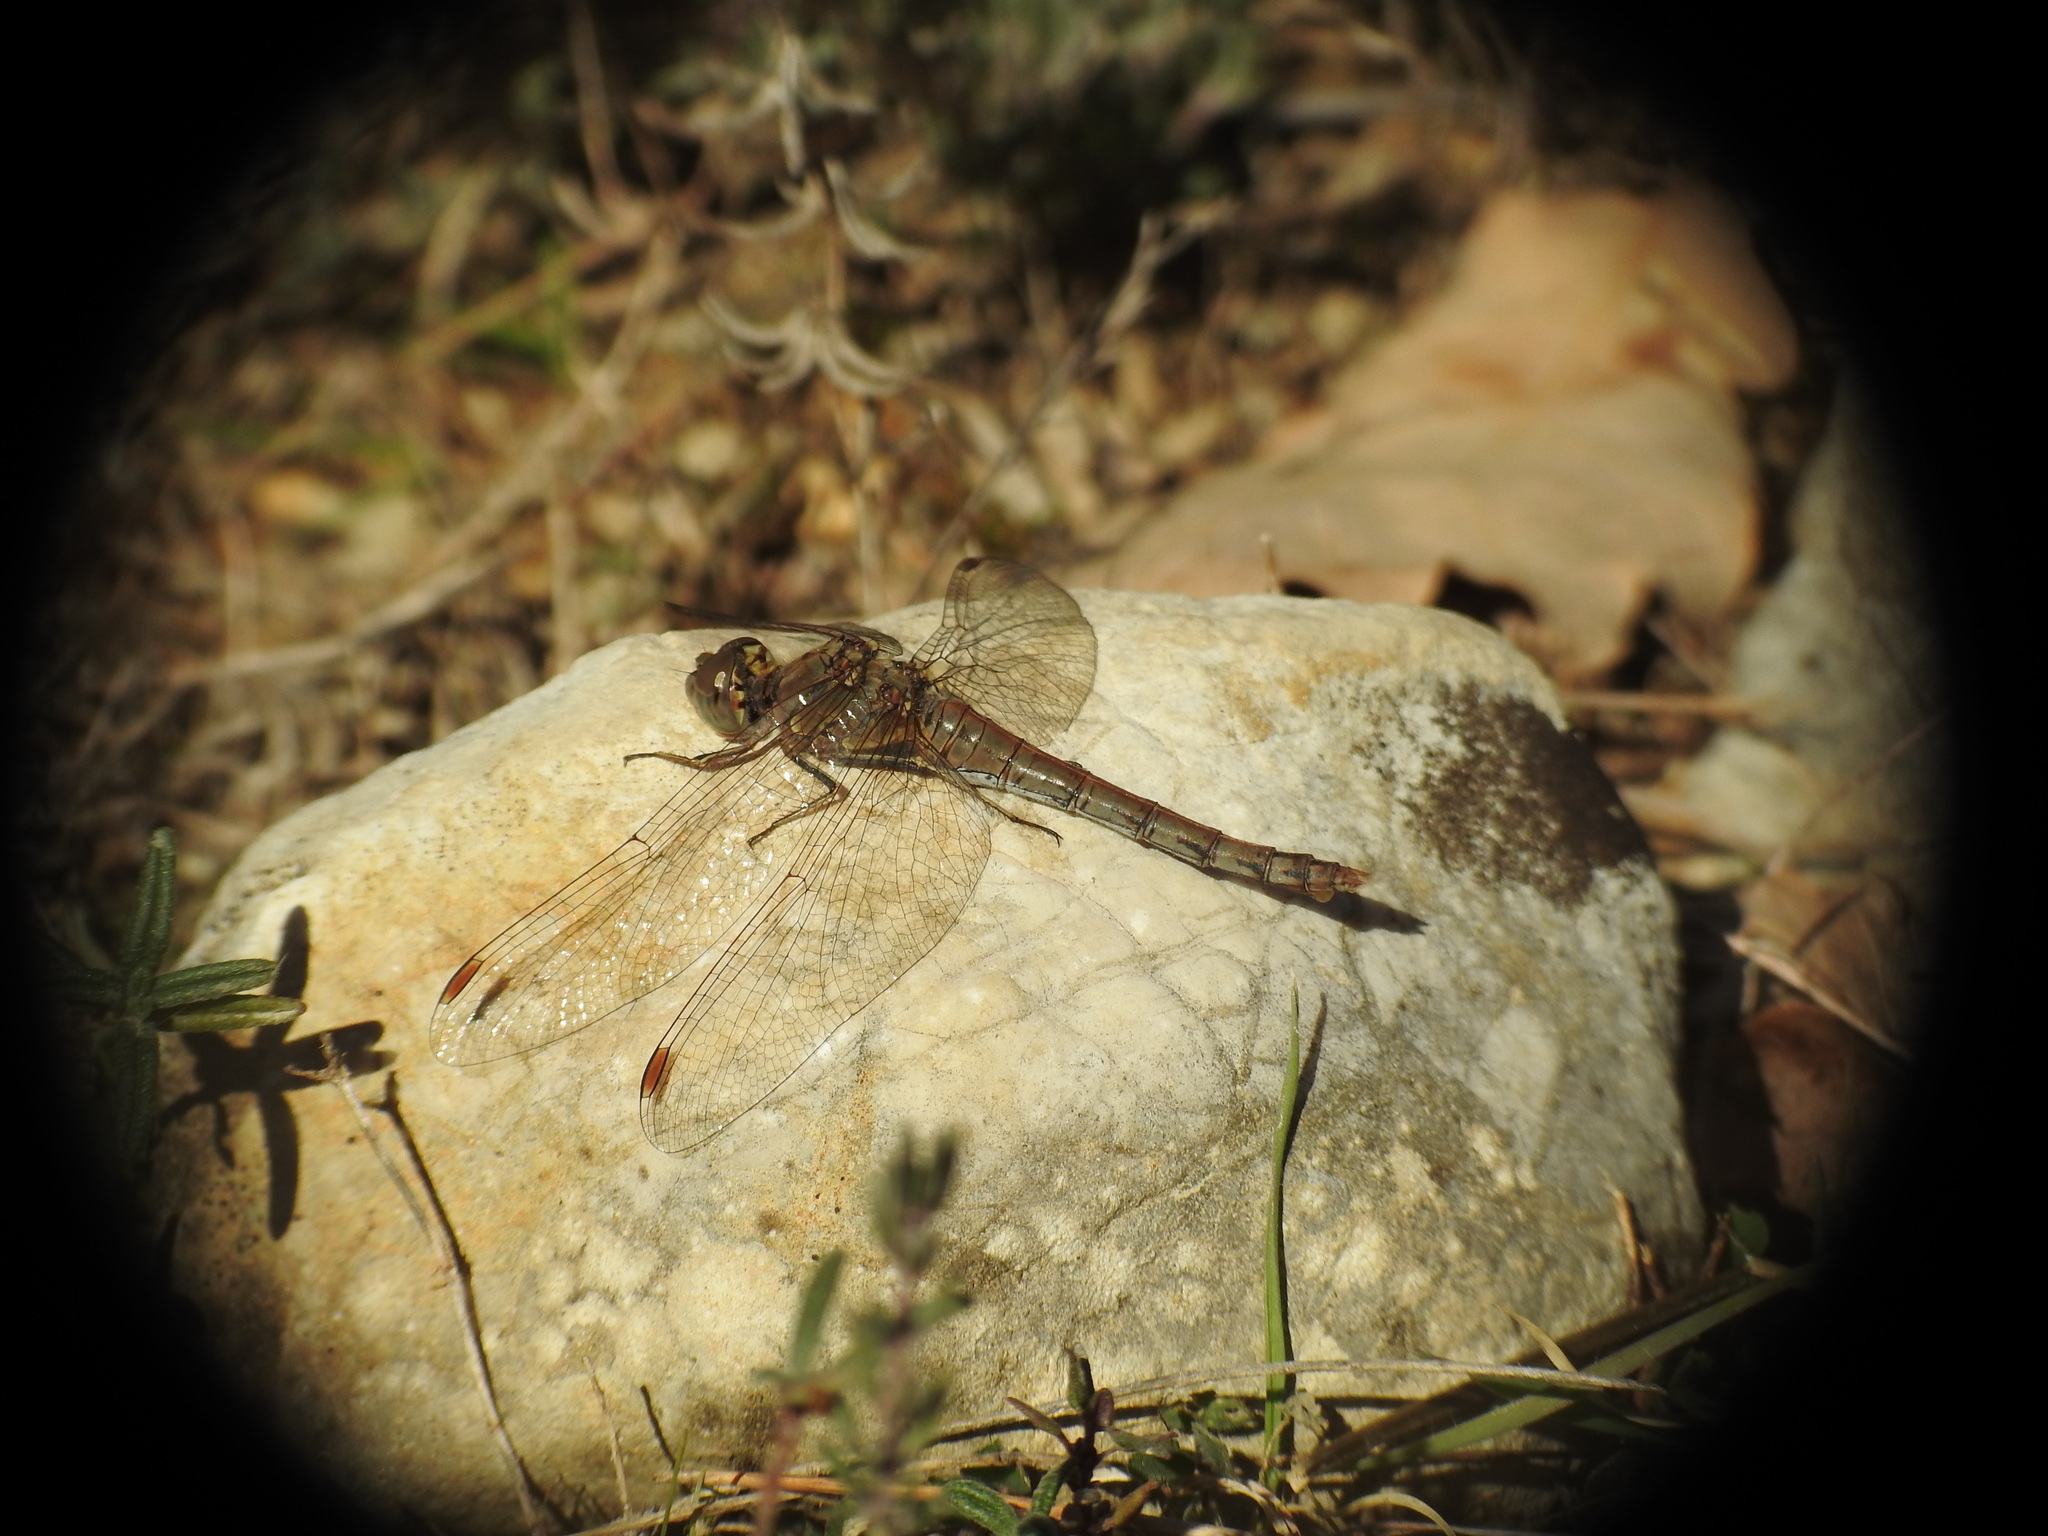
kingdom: Animalia
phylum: Arthropoda
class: Insecta
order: Odonata
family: Libellulidae
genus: Sympetrum
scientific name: Sympetrum striolatum
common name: Common darter
